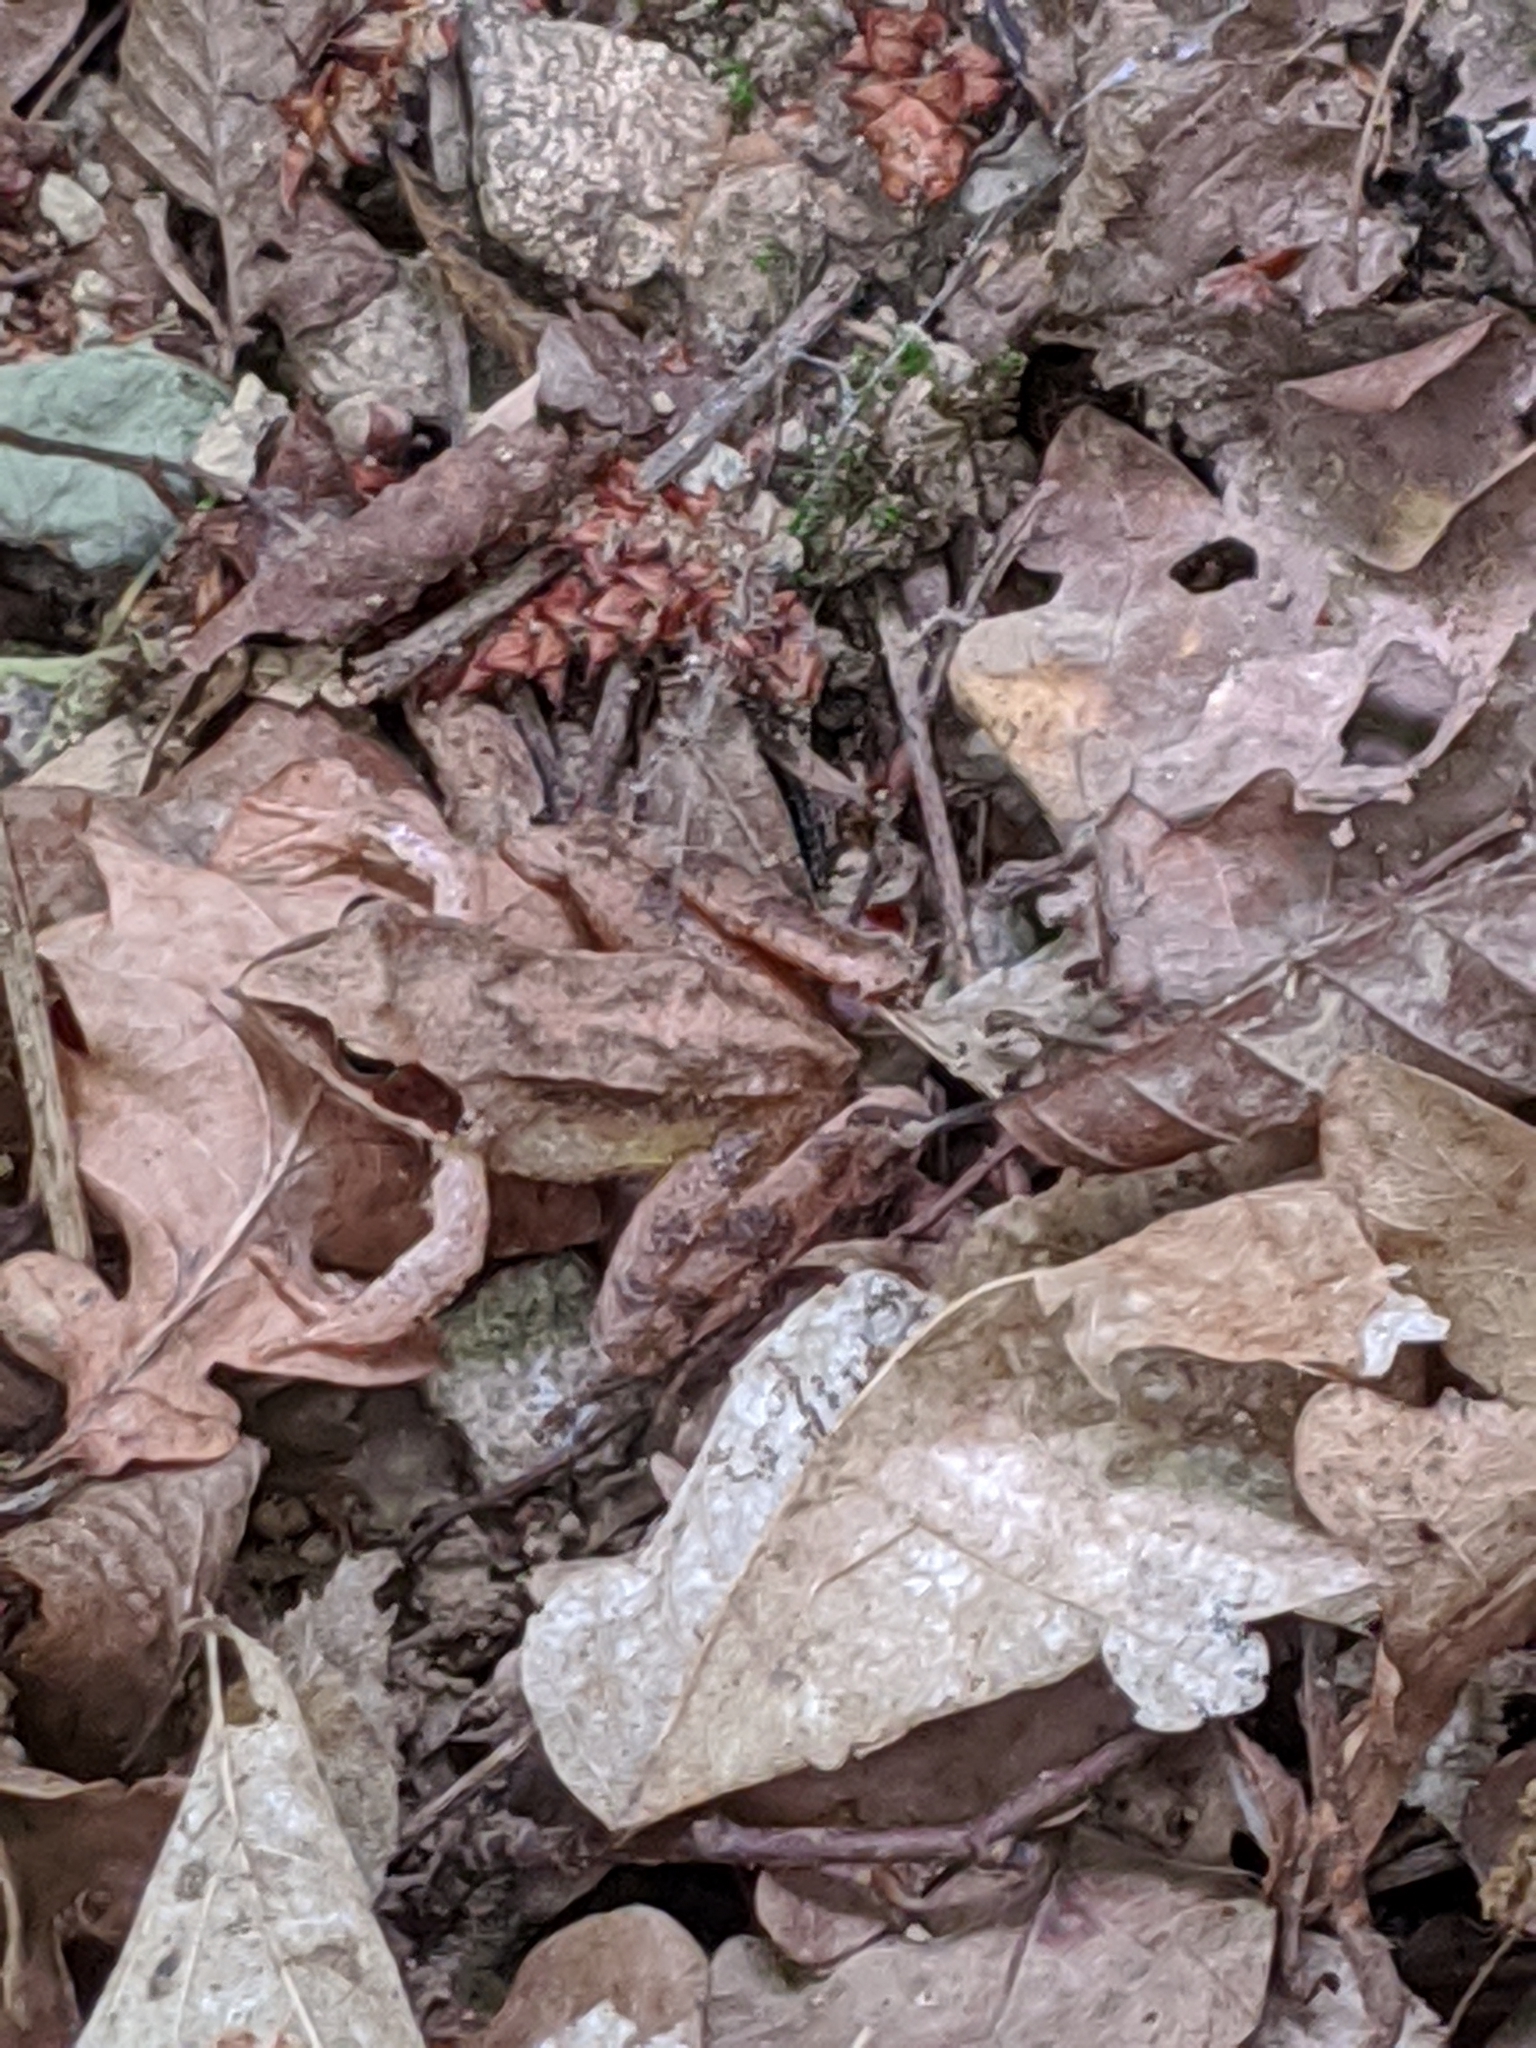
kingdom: Animalia
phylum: Chordata
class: Amphibia
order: Anura
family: Ranidae
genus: Rana
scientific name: Rana dalmatina
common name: Agile frog
